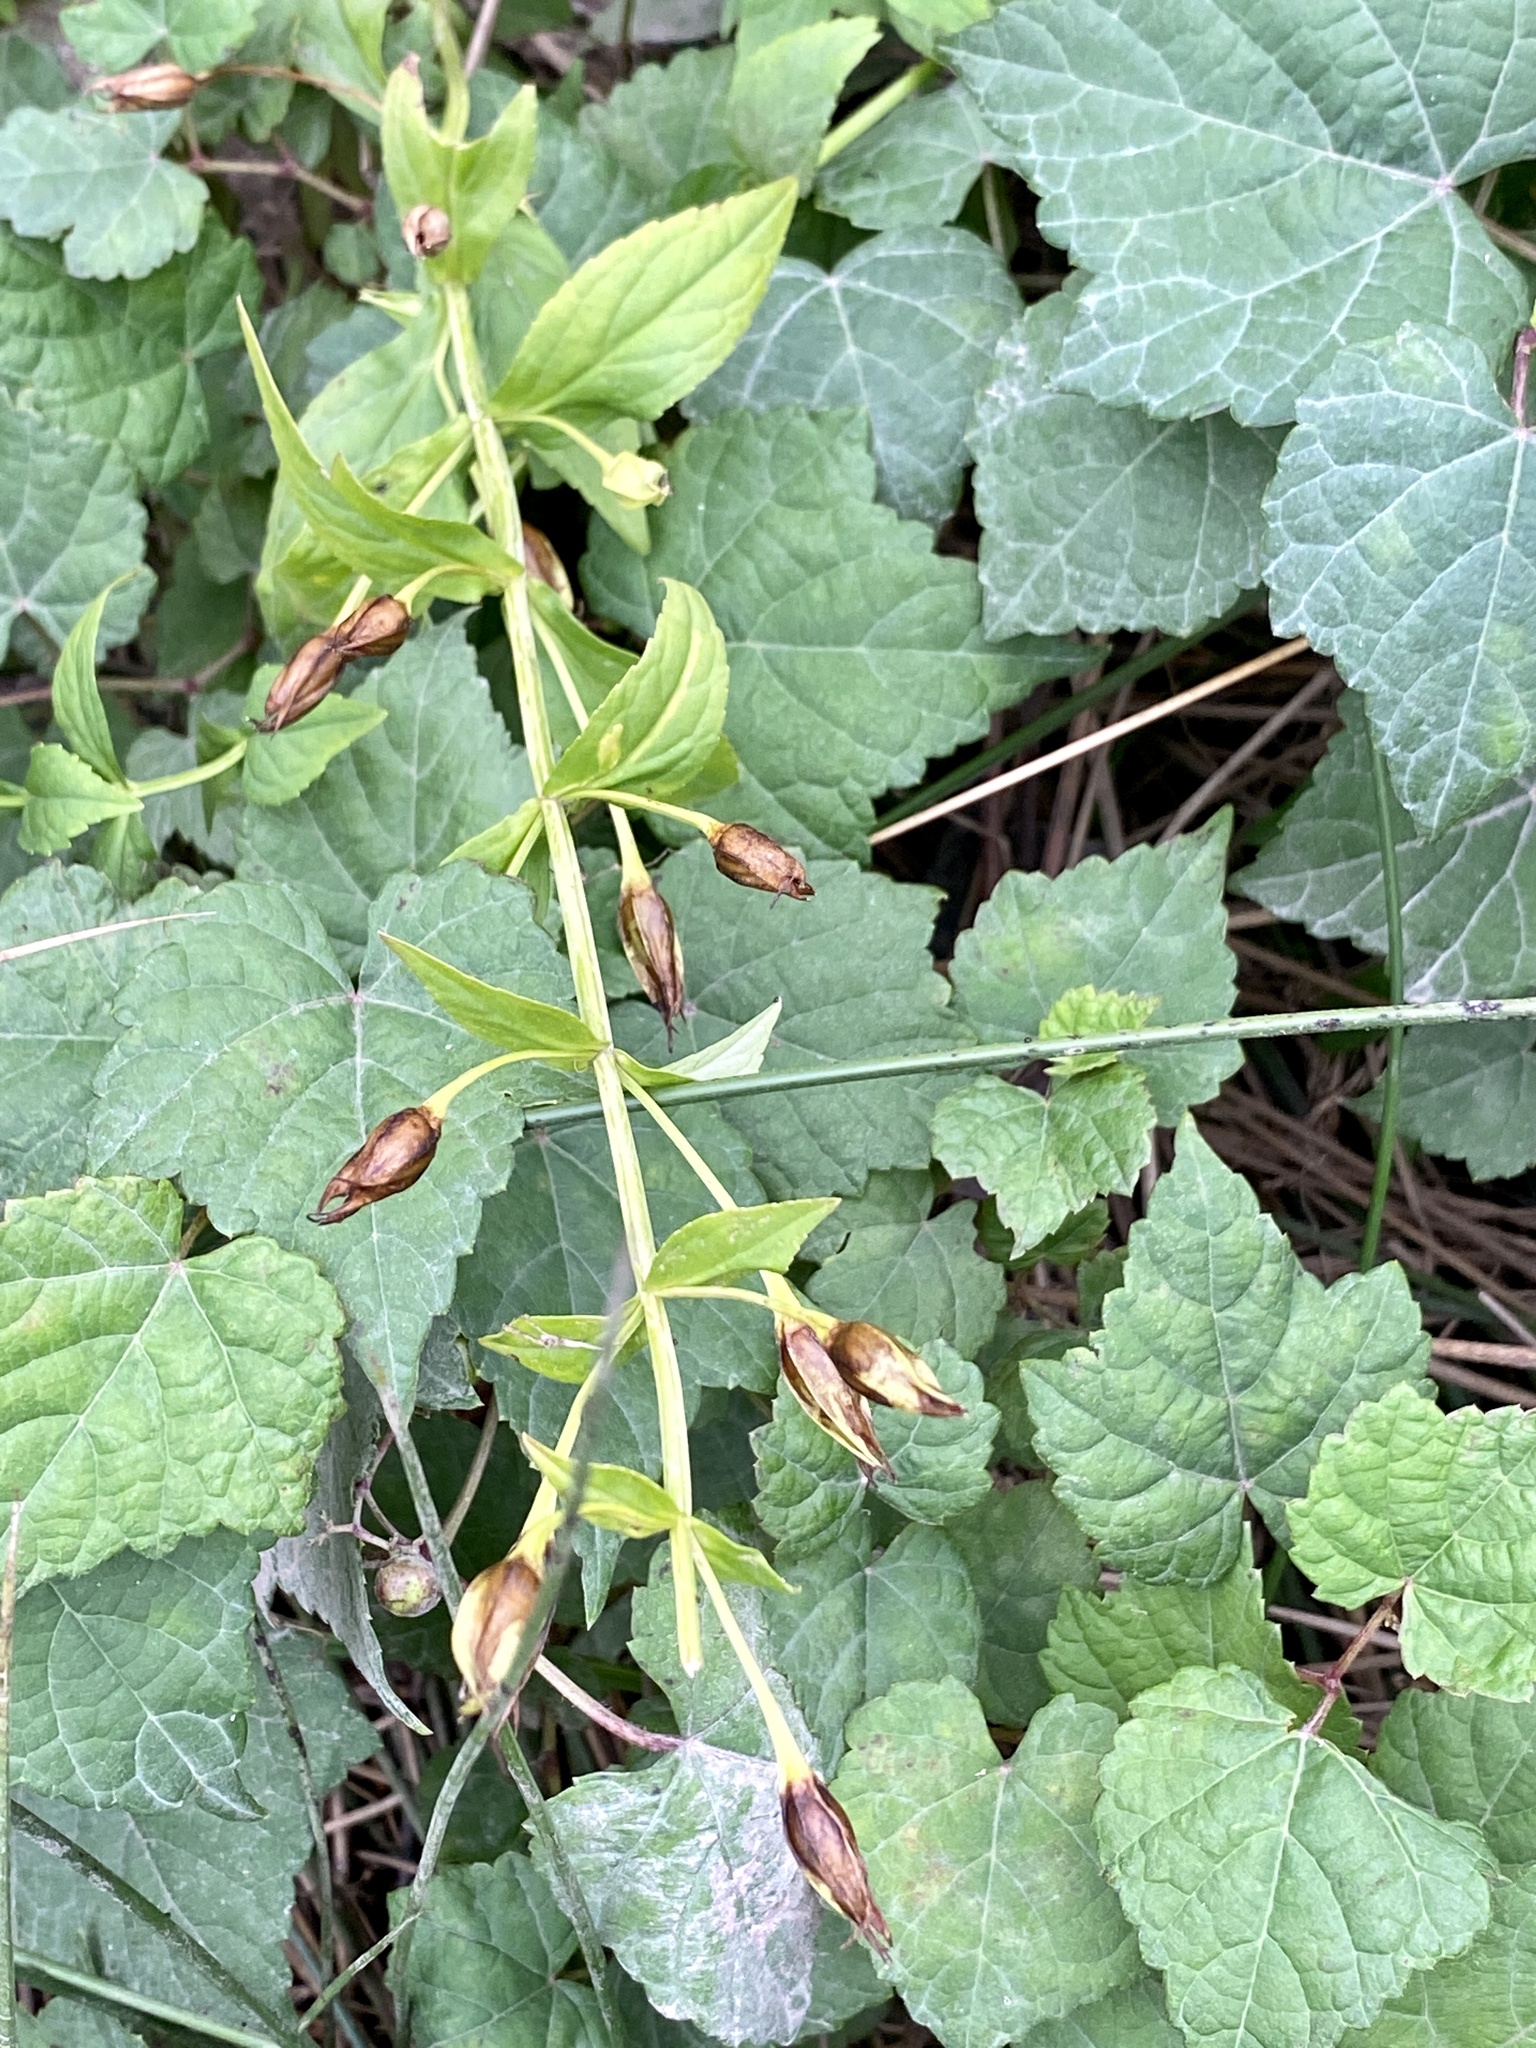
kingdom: Plantae
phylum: Tracheophyta
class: Magnoliopsida
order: Lamiales
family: Phrymaceae
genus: Mimulus
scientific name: Mimulus ringens
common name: Allegheny monkeyflower
